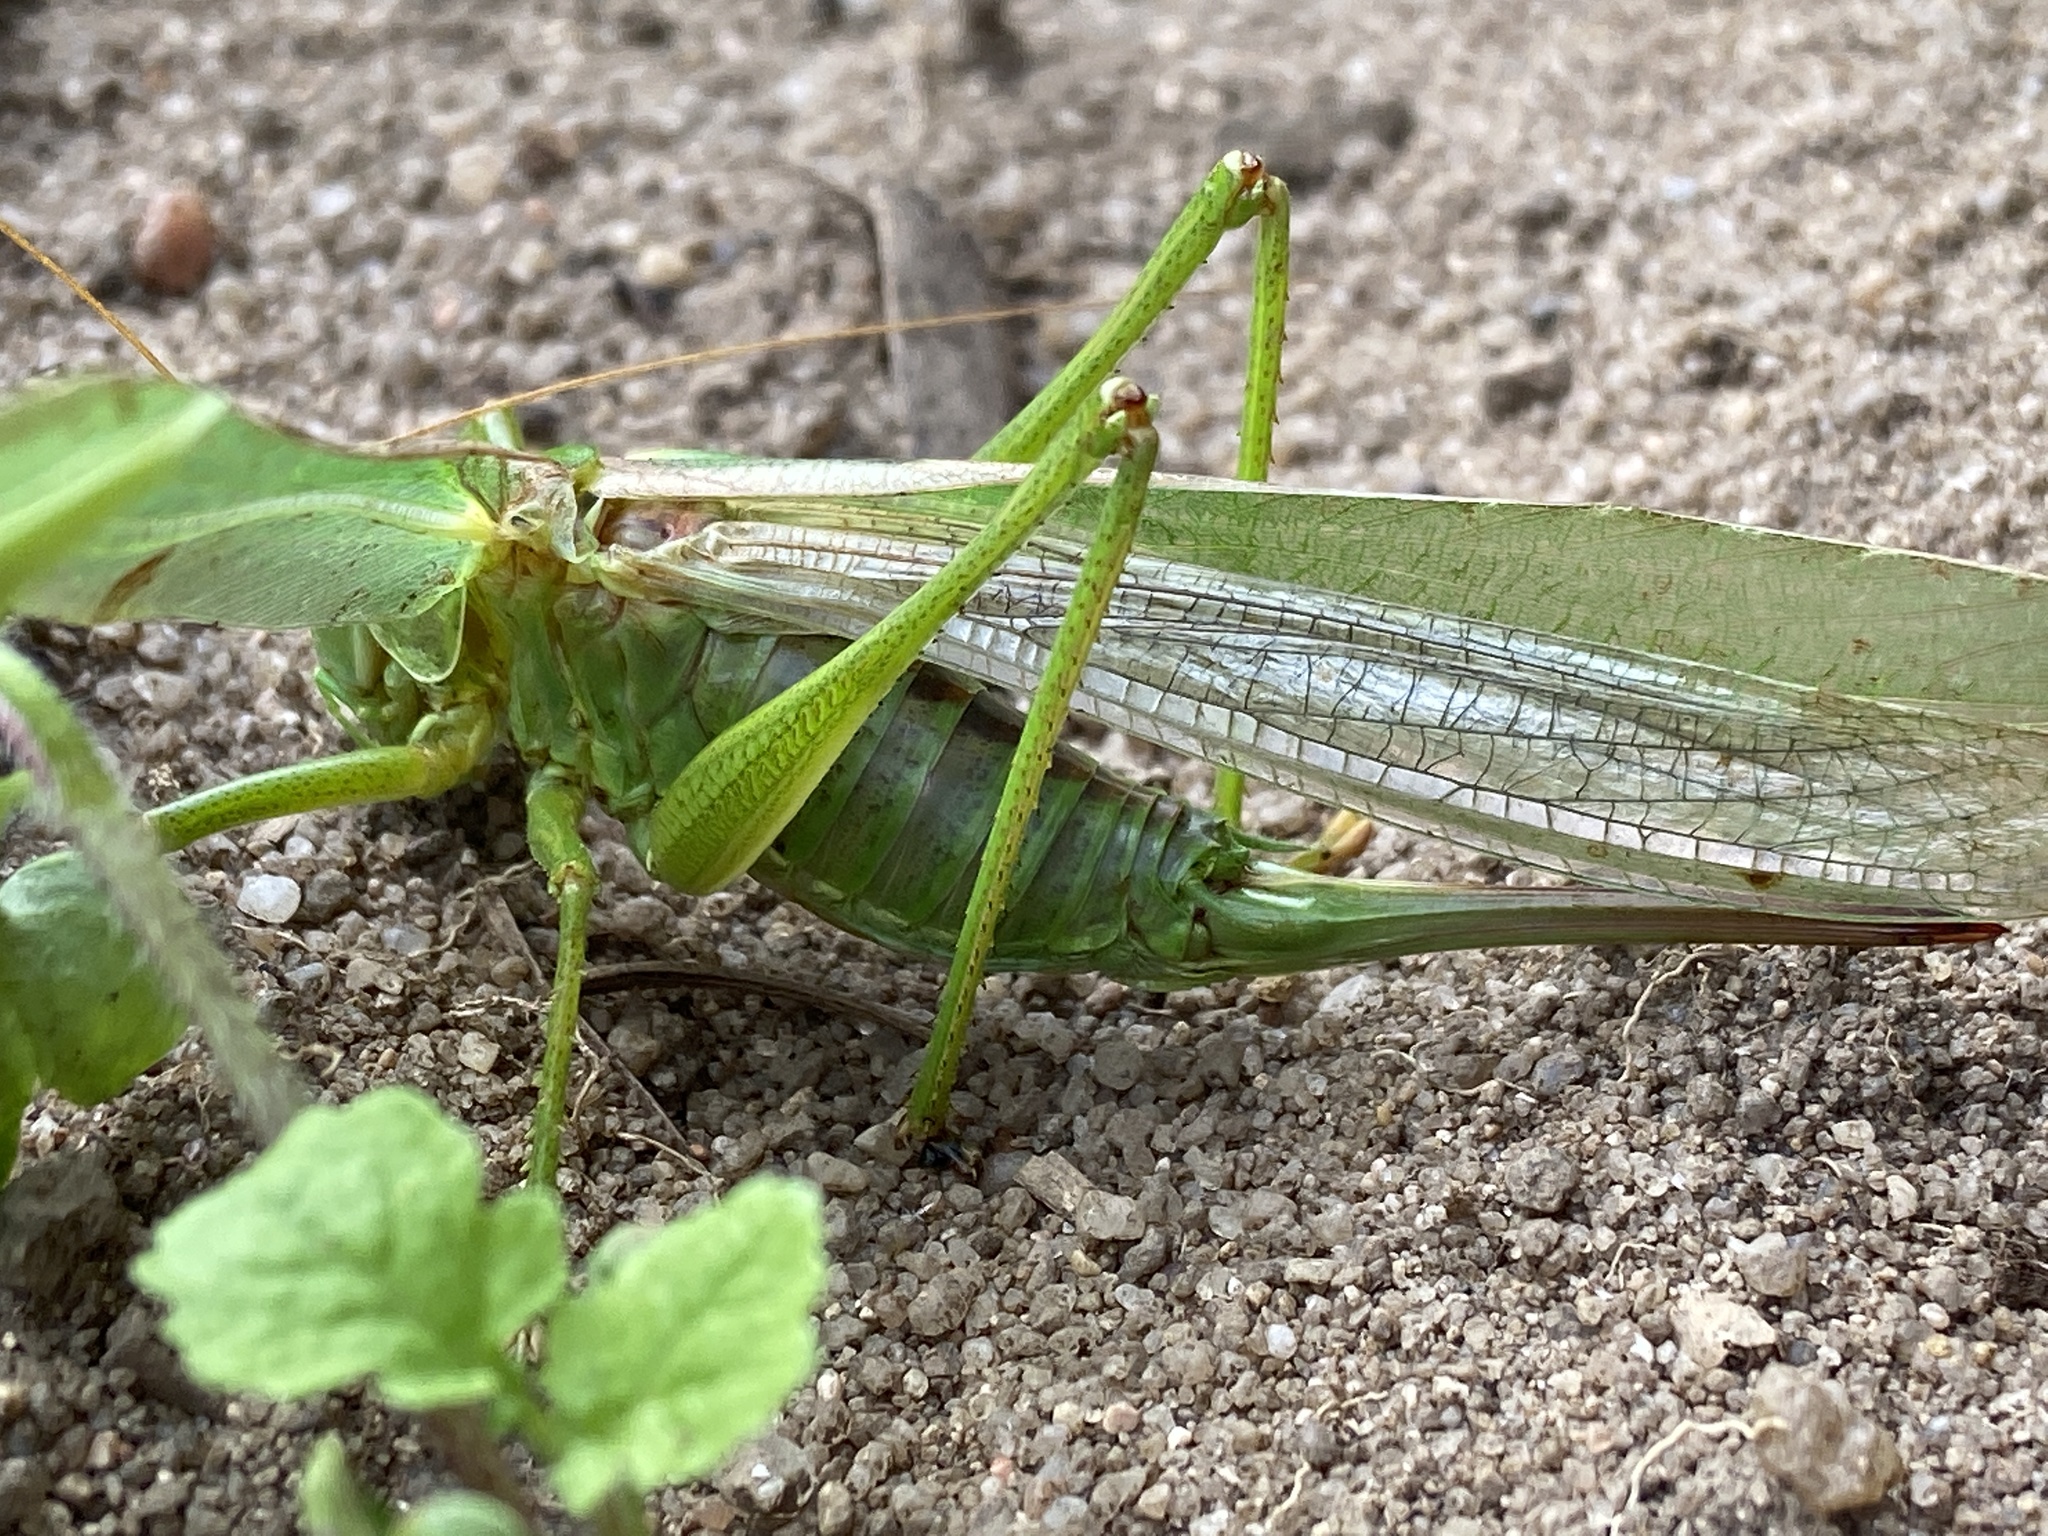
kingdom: Animalia
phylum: Arthropoda
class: Insecta
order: Orthoptera
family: Tettigoniidae
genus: Tettigonia
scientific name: Tettigonia viridissima
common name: Great green bush-cricket
